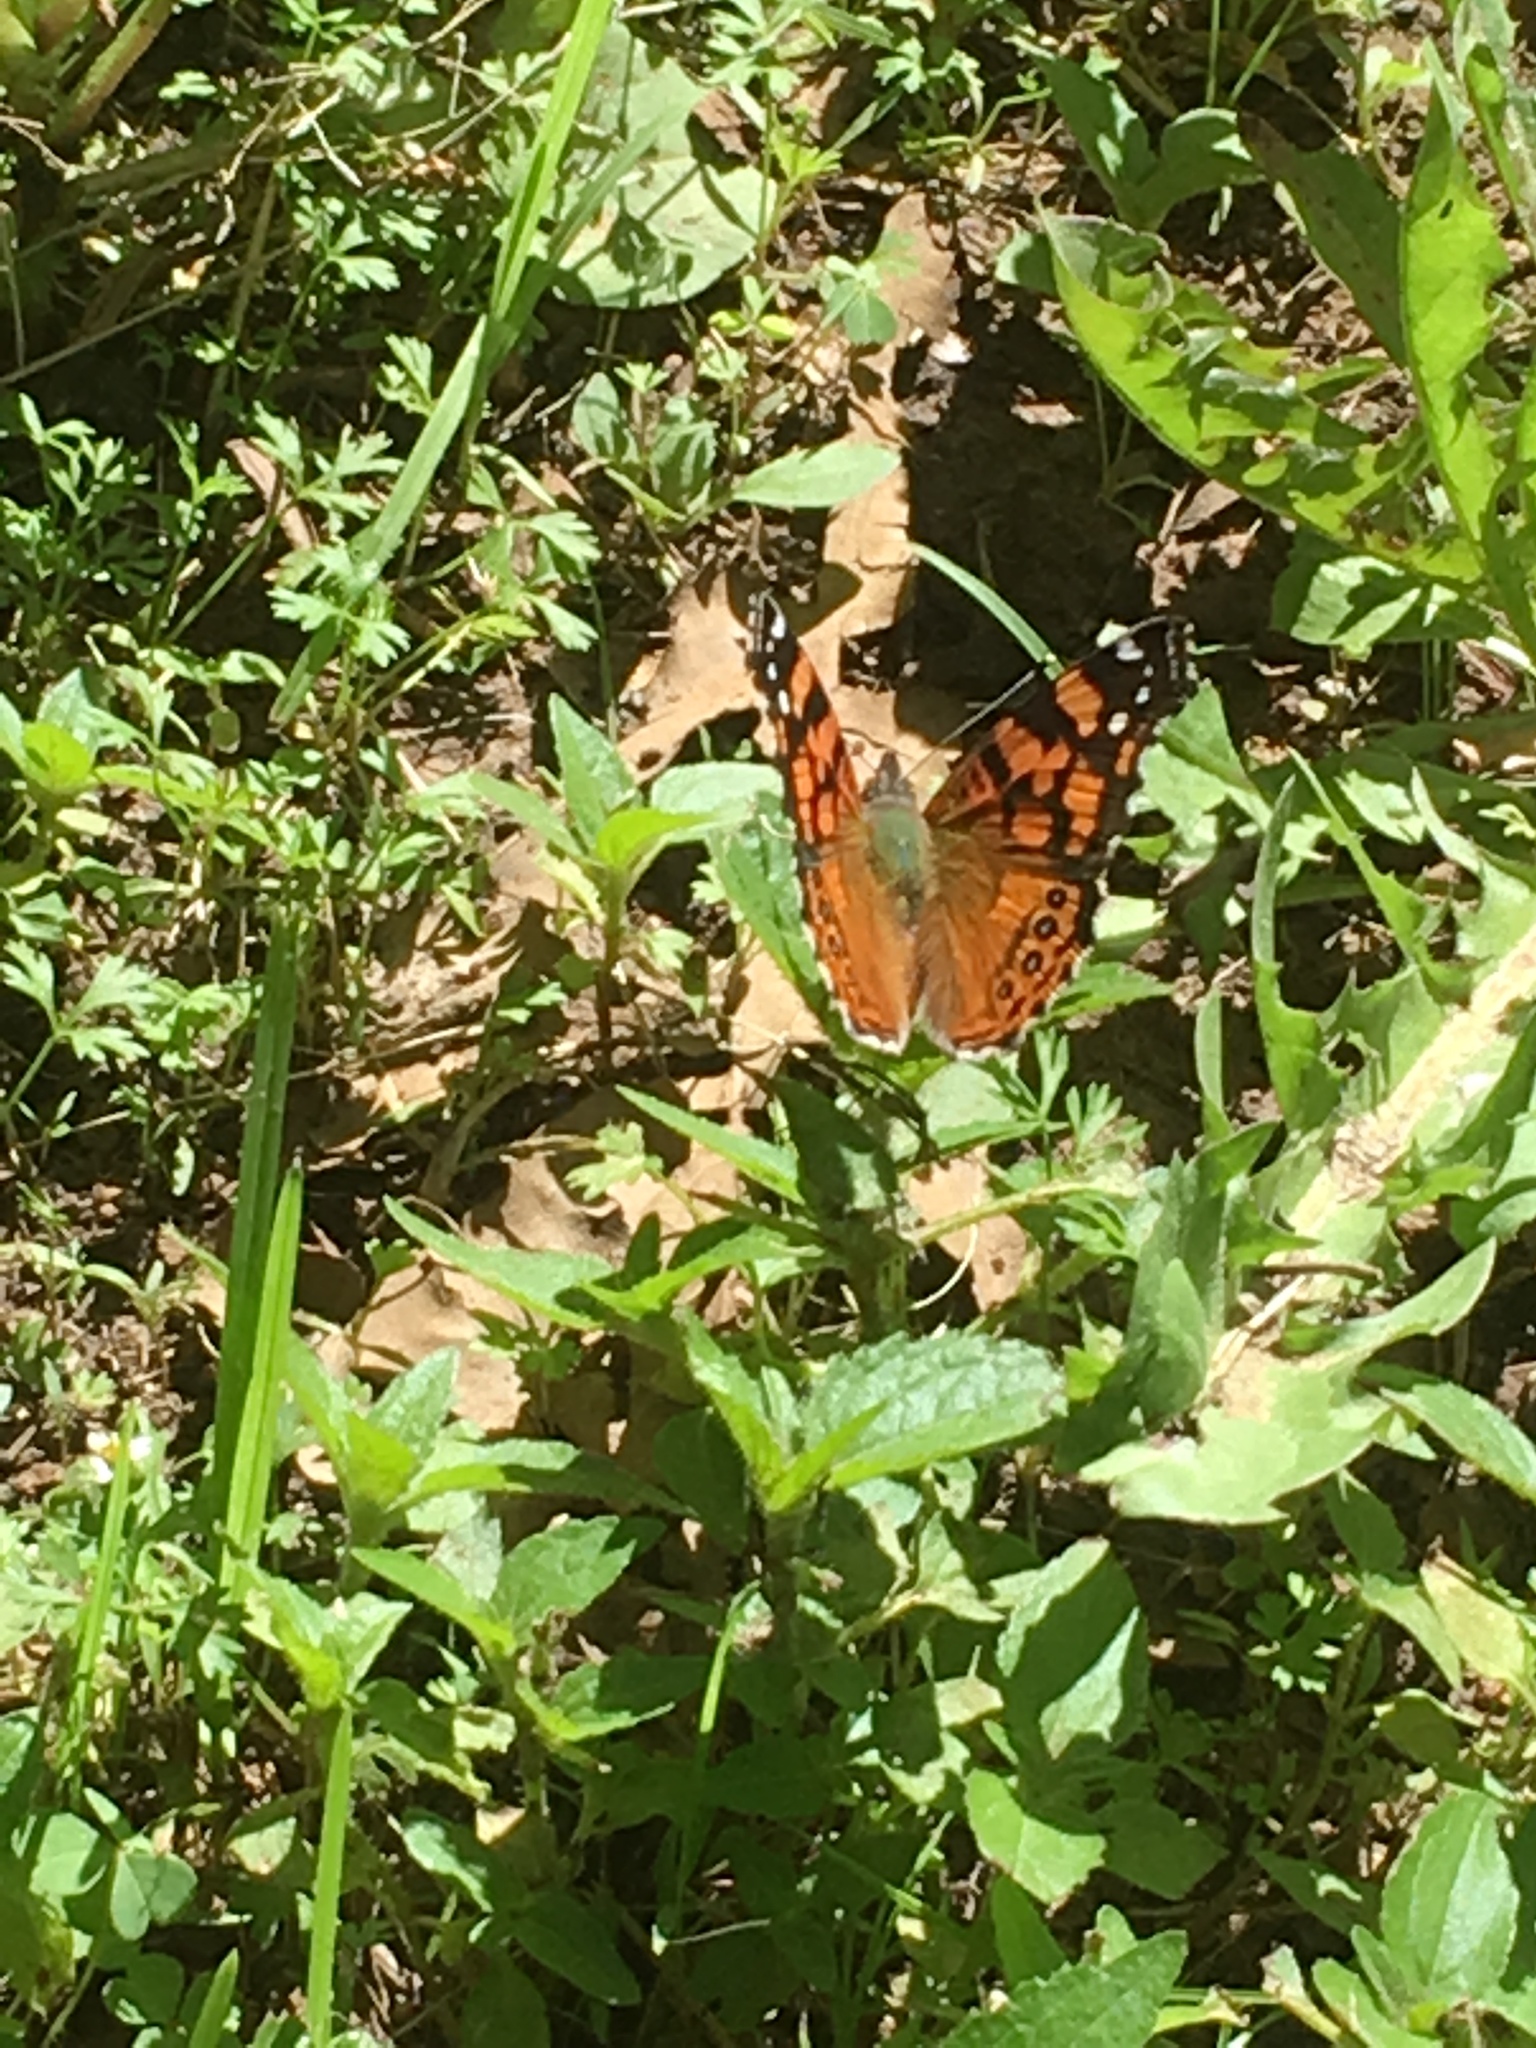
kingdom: Animalia
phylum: Arthropoda
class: Insecta
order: Lepidoptera
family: Nymphalidae
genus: Vanessa
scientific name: Vanessa annabella
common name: West coast lady
